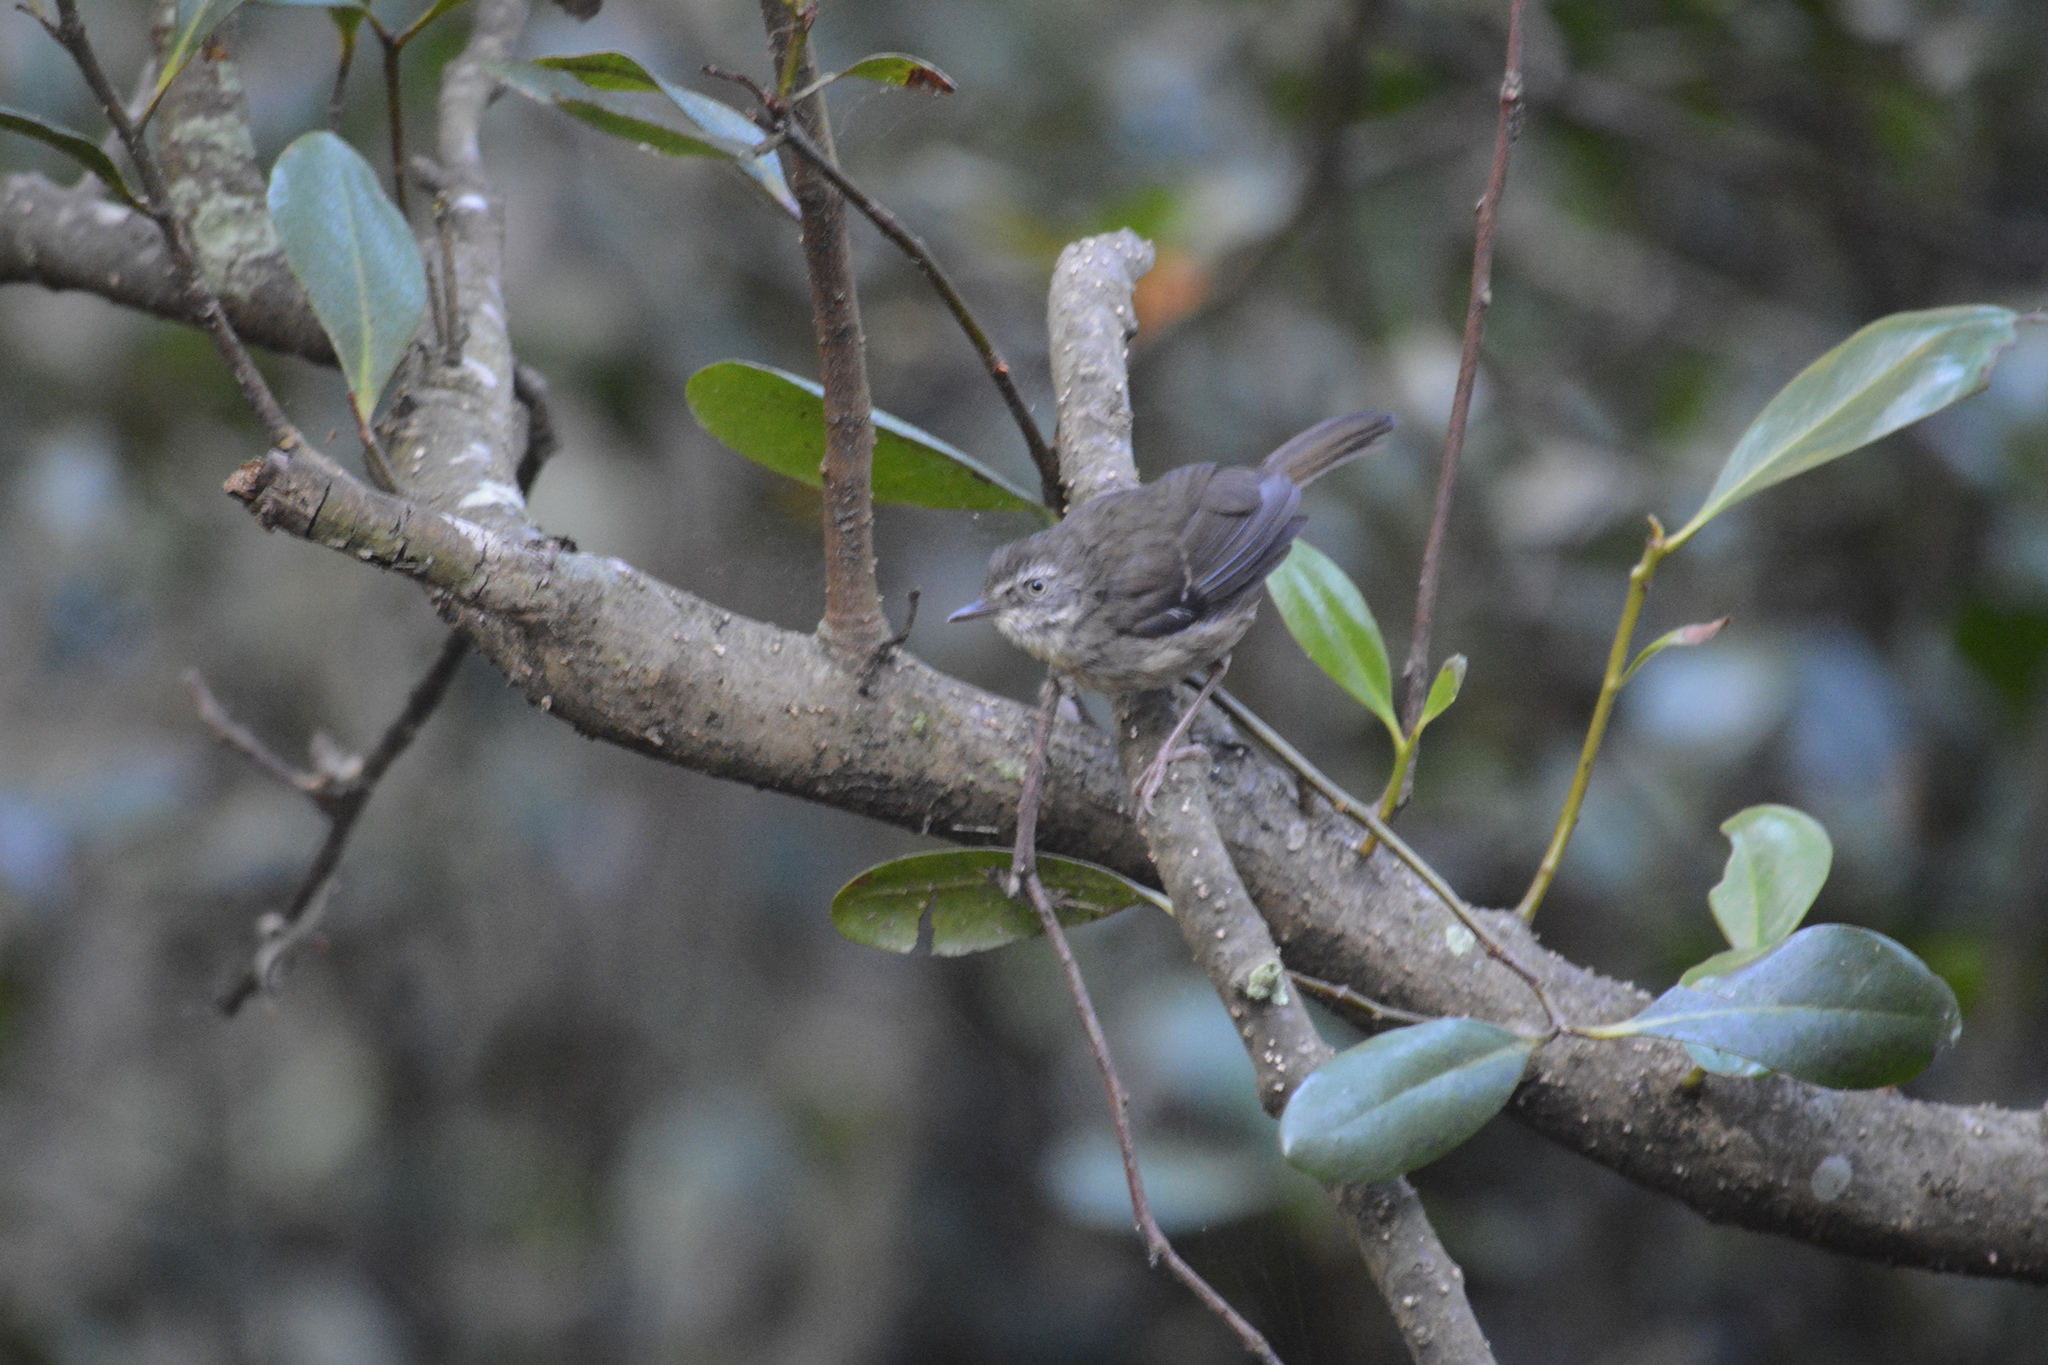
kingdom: Animalia
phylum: Chordata
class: Aves
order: Passeriformes
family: Acanthizidae
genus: Sericornis
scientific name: Sericornis frontalis
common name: White-browed scrubwren
